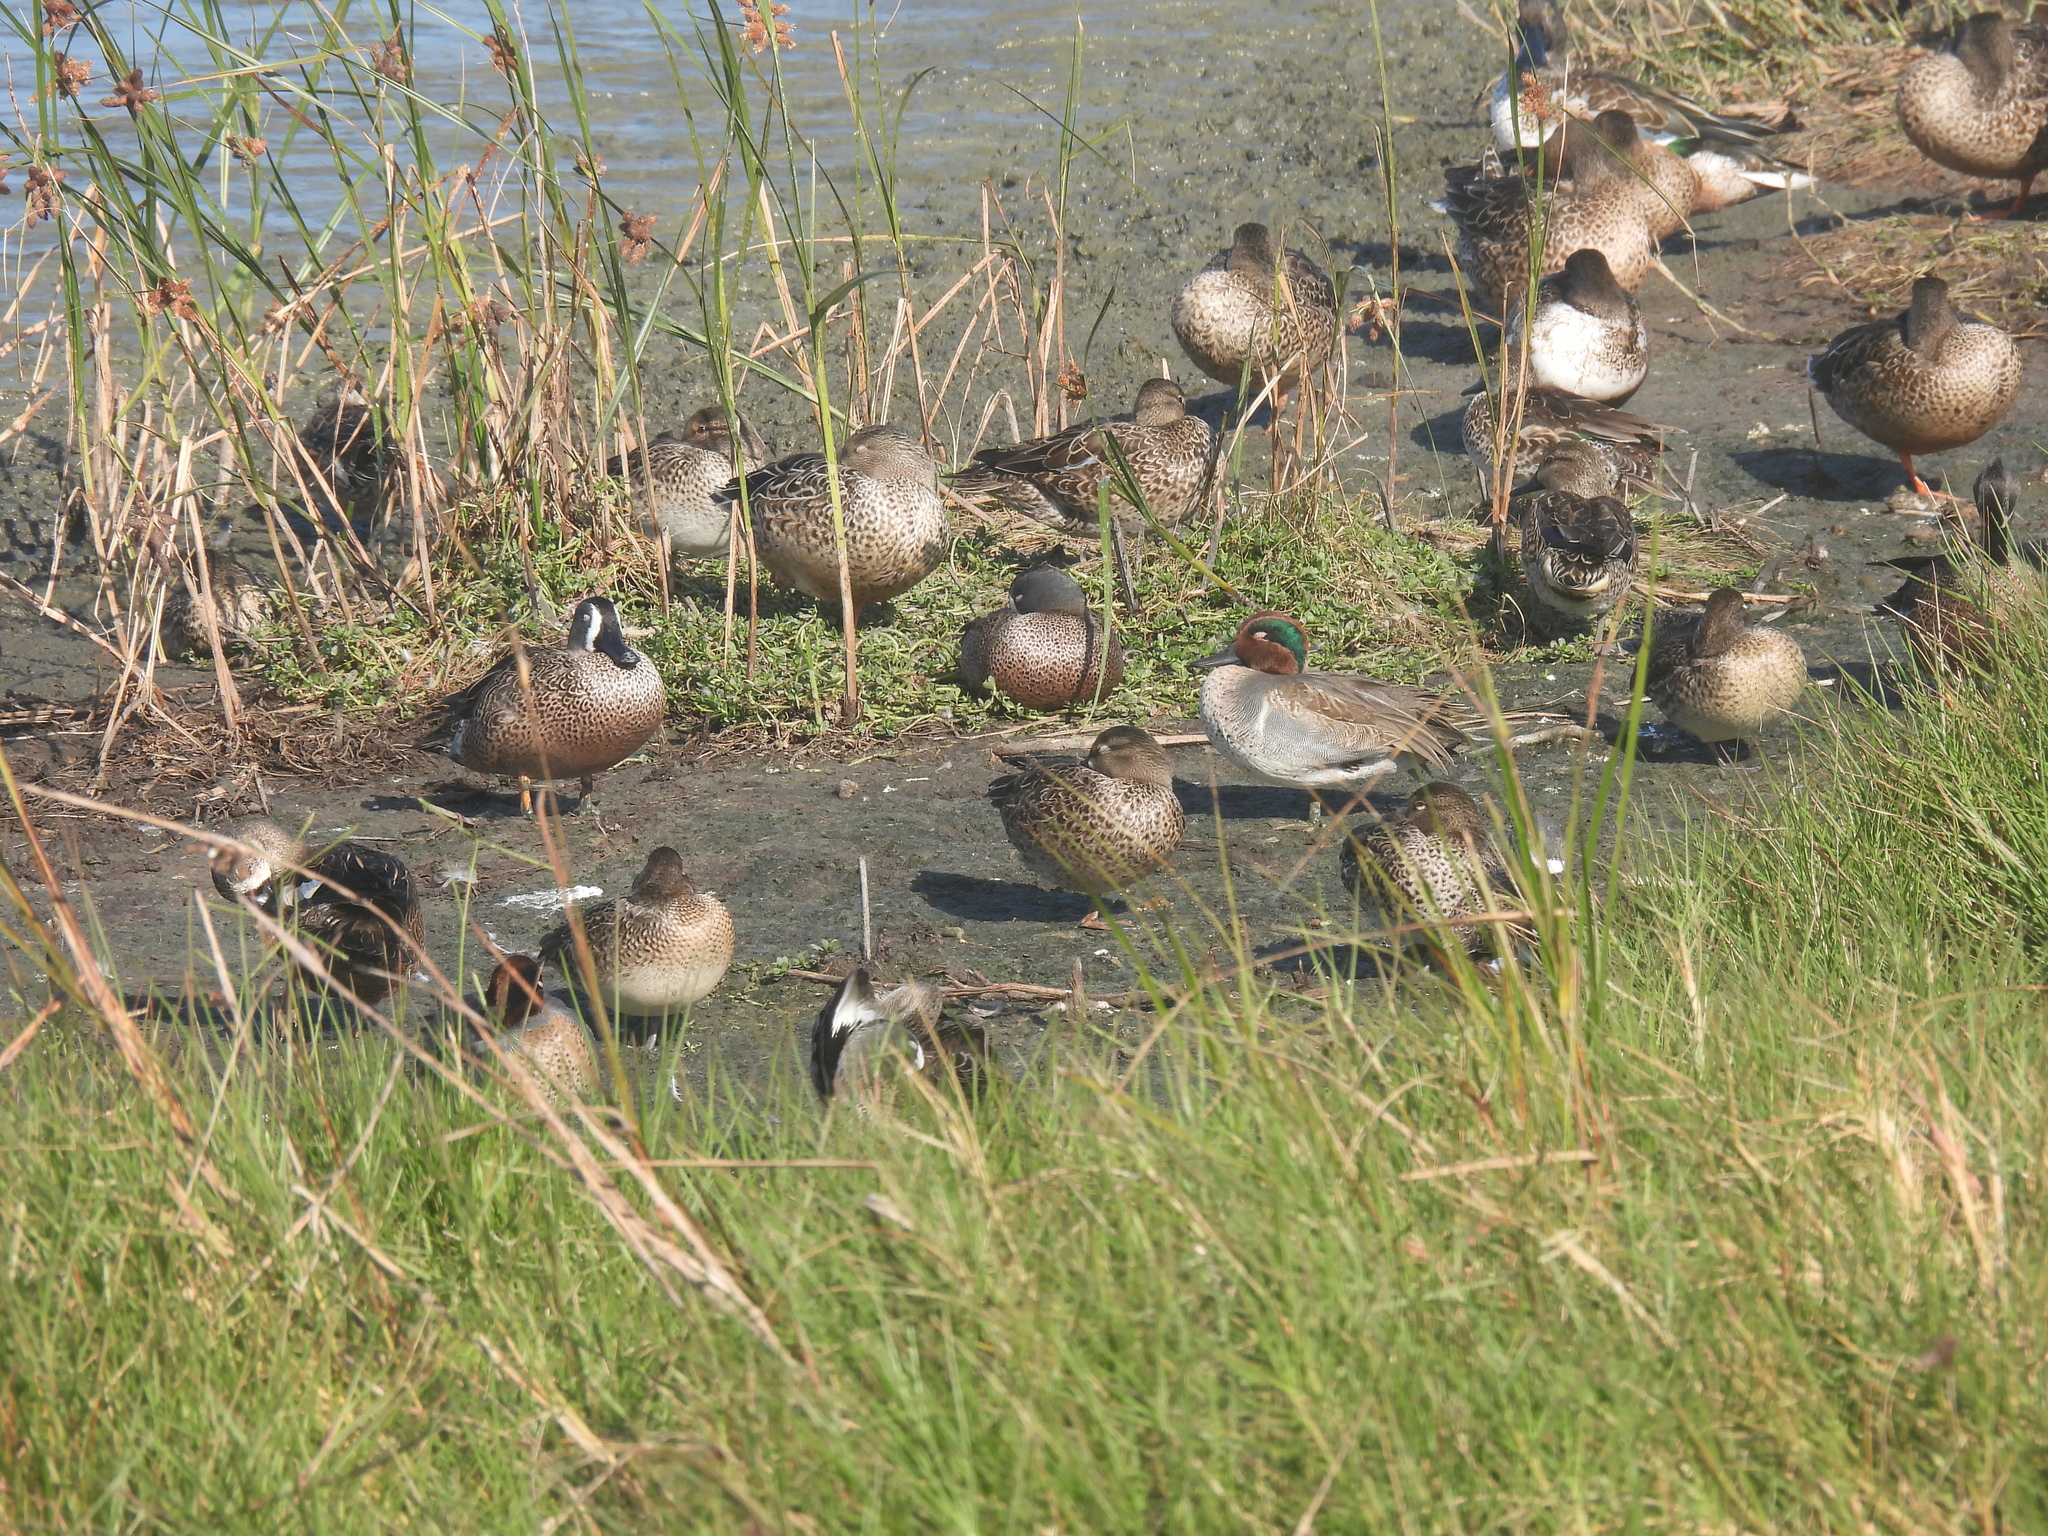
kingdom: Animalia
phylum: Chordata
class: Aves
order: Anseriformes
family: Anatidae
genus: Anas
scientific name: Anas crecca
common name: Eurasian teal
